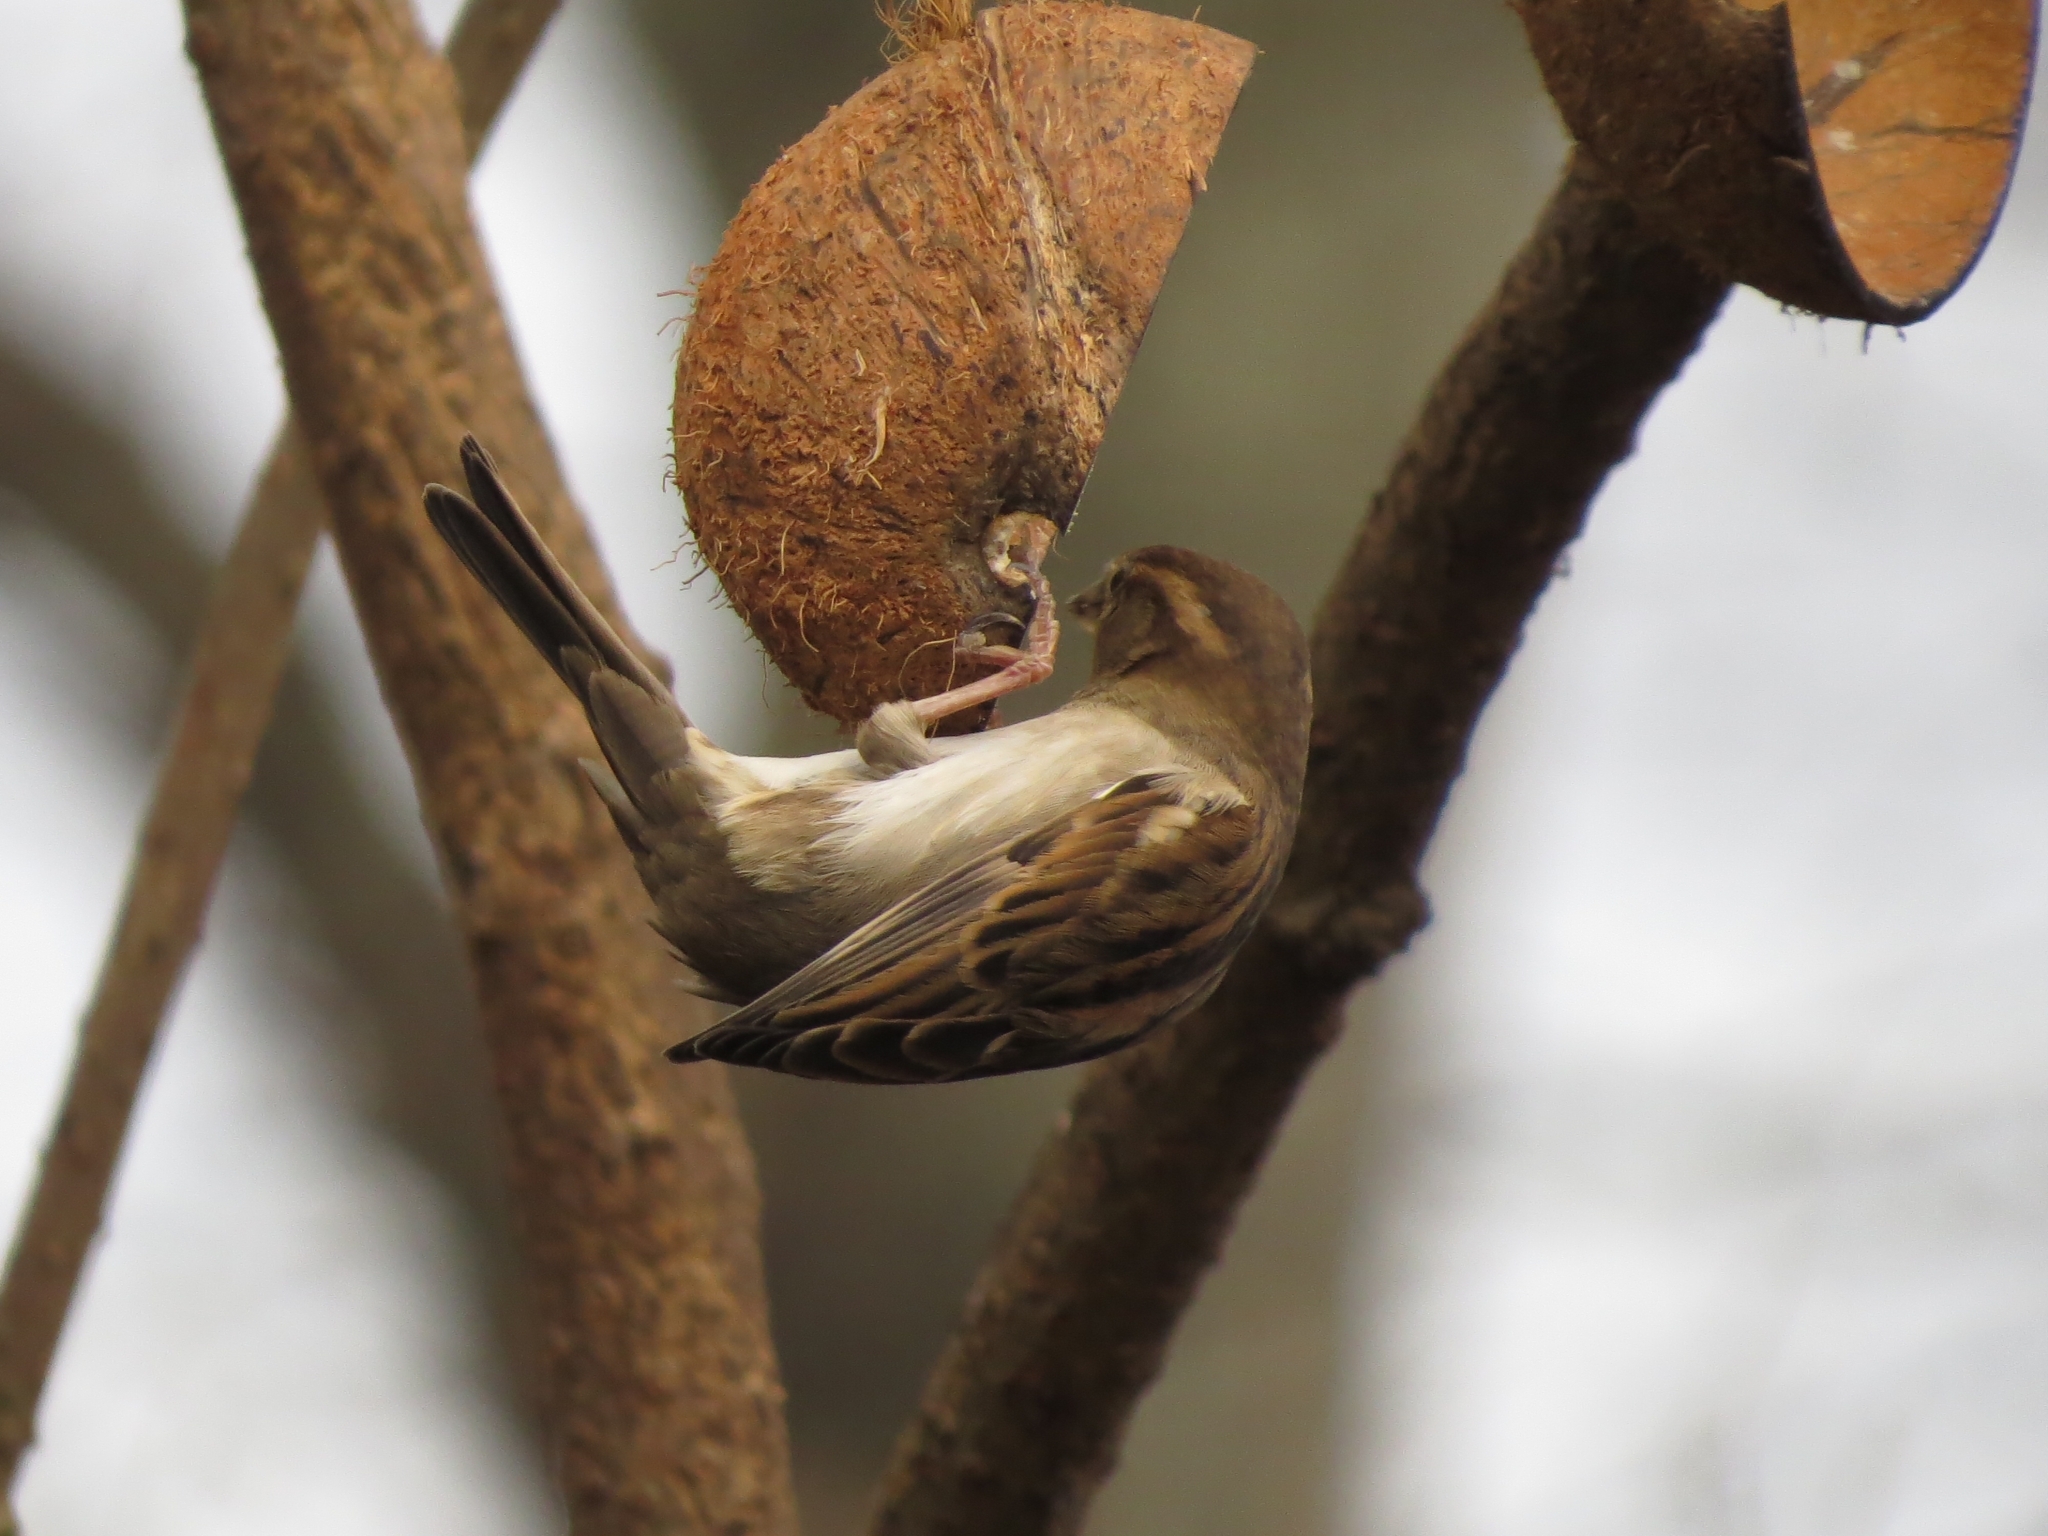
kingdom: Animalia
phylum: Chordata
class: Aves
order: Passeriformes
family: Passeridae
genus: Passer
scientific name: Passer domesticus
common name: House sparrow
